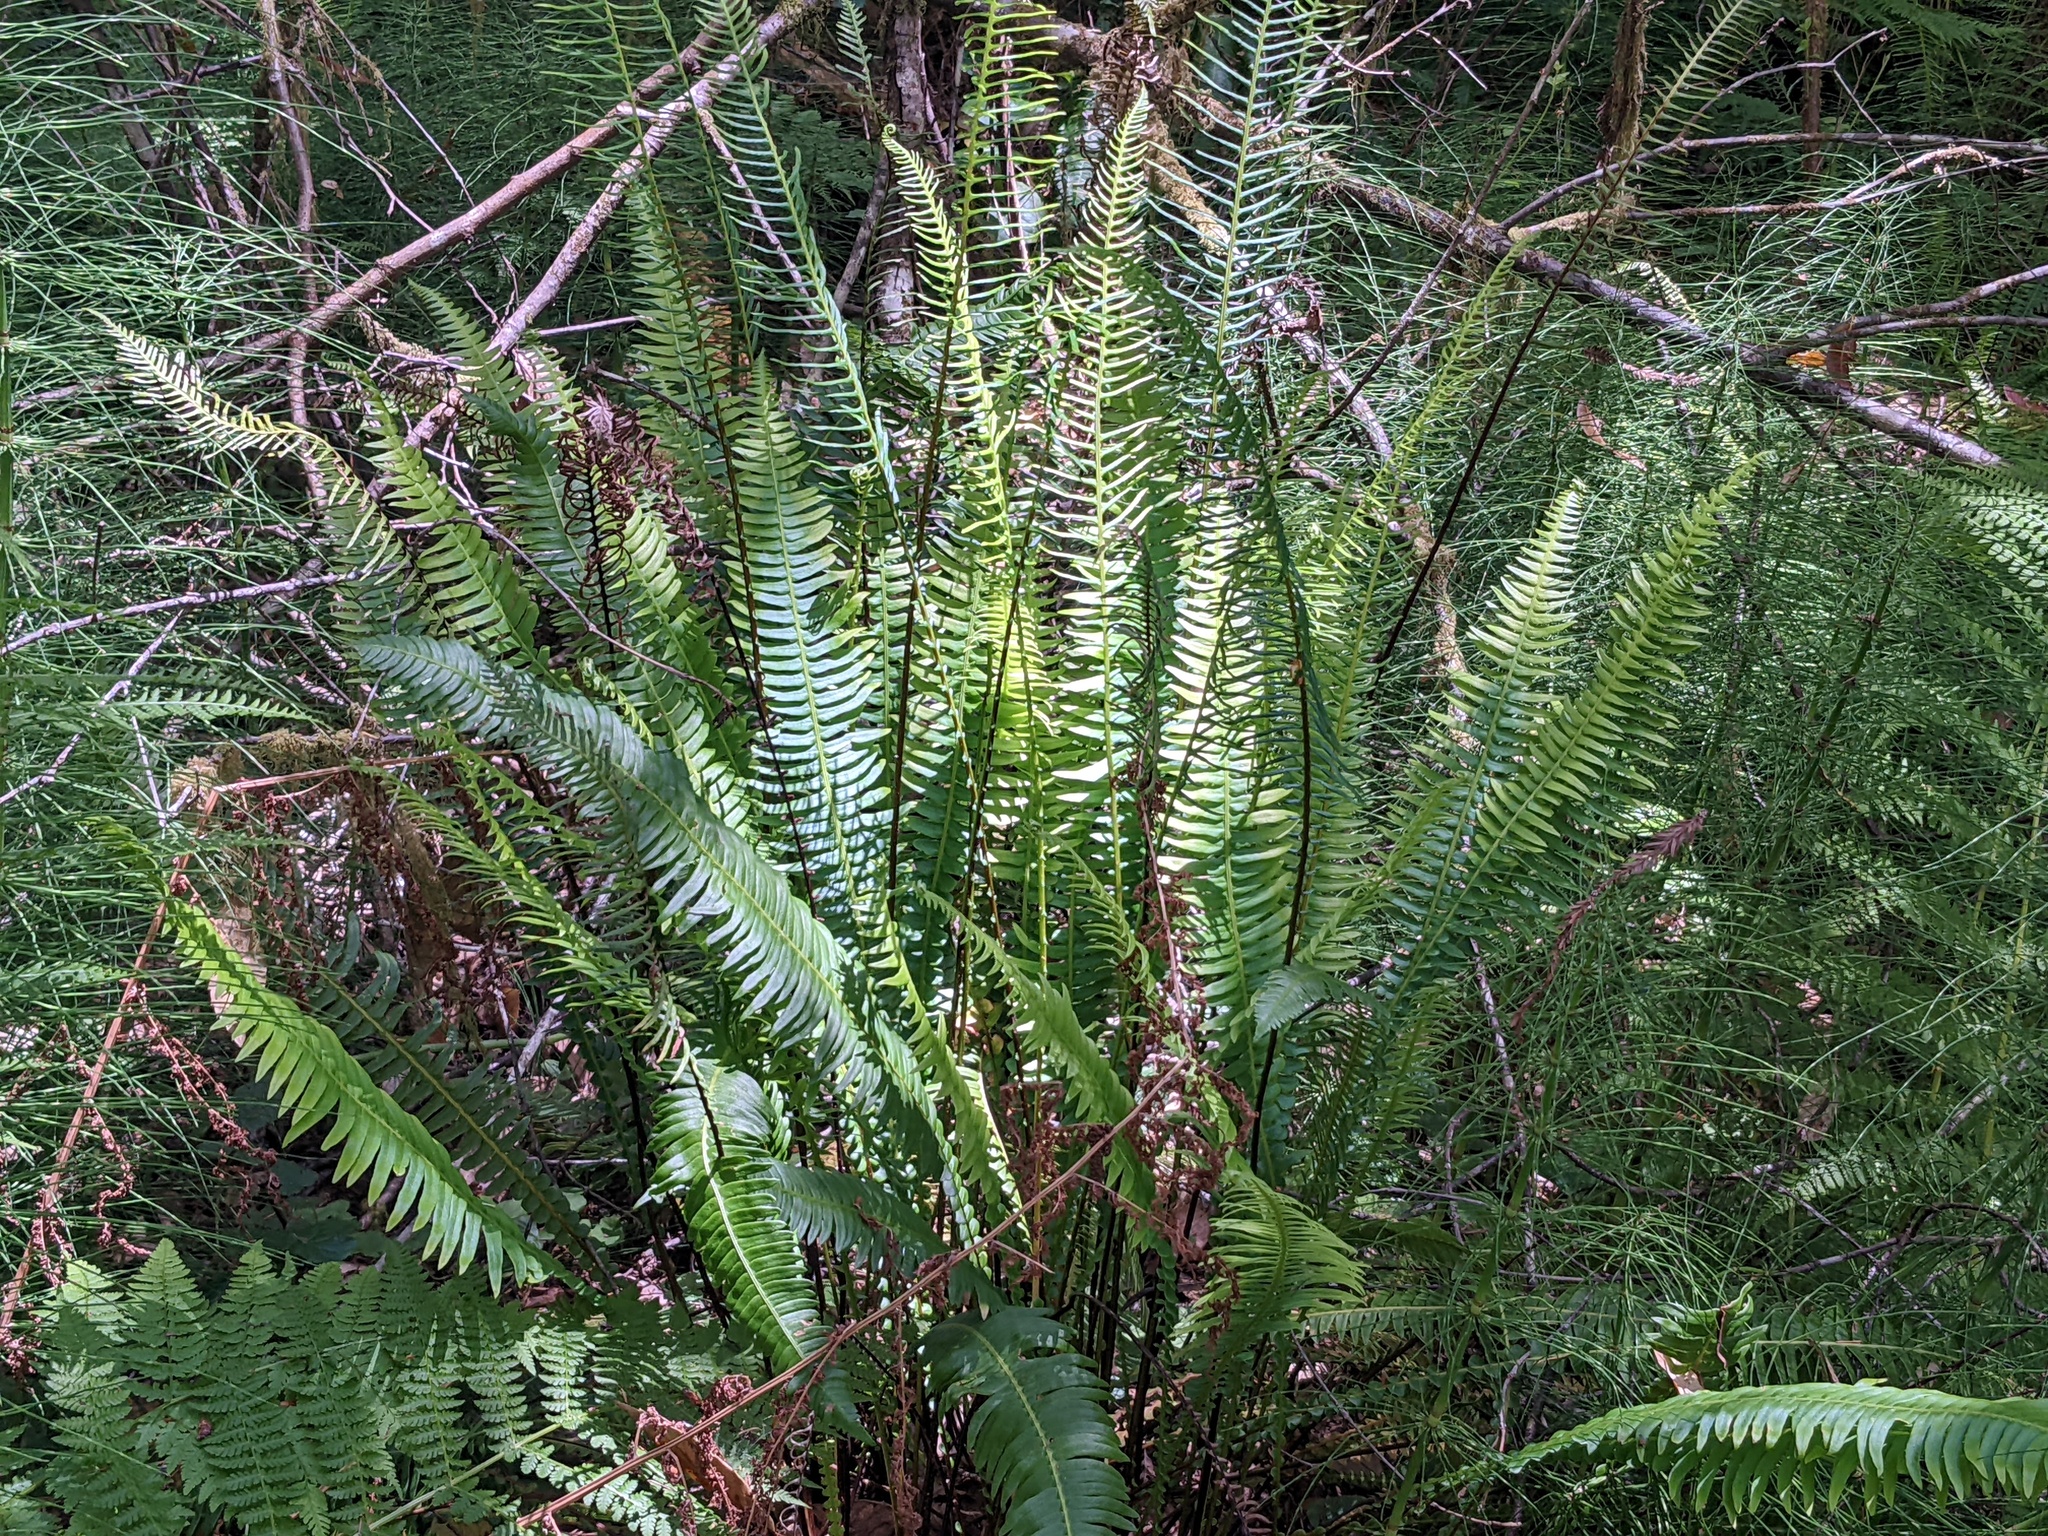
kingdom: Plantae
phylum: Tracheophyta
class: Polypodiopsida
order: Polypodiales
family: Blechnaceae
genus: Struthiopteris
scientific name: Struthiopteris spicant
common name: Deer fern
